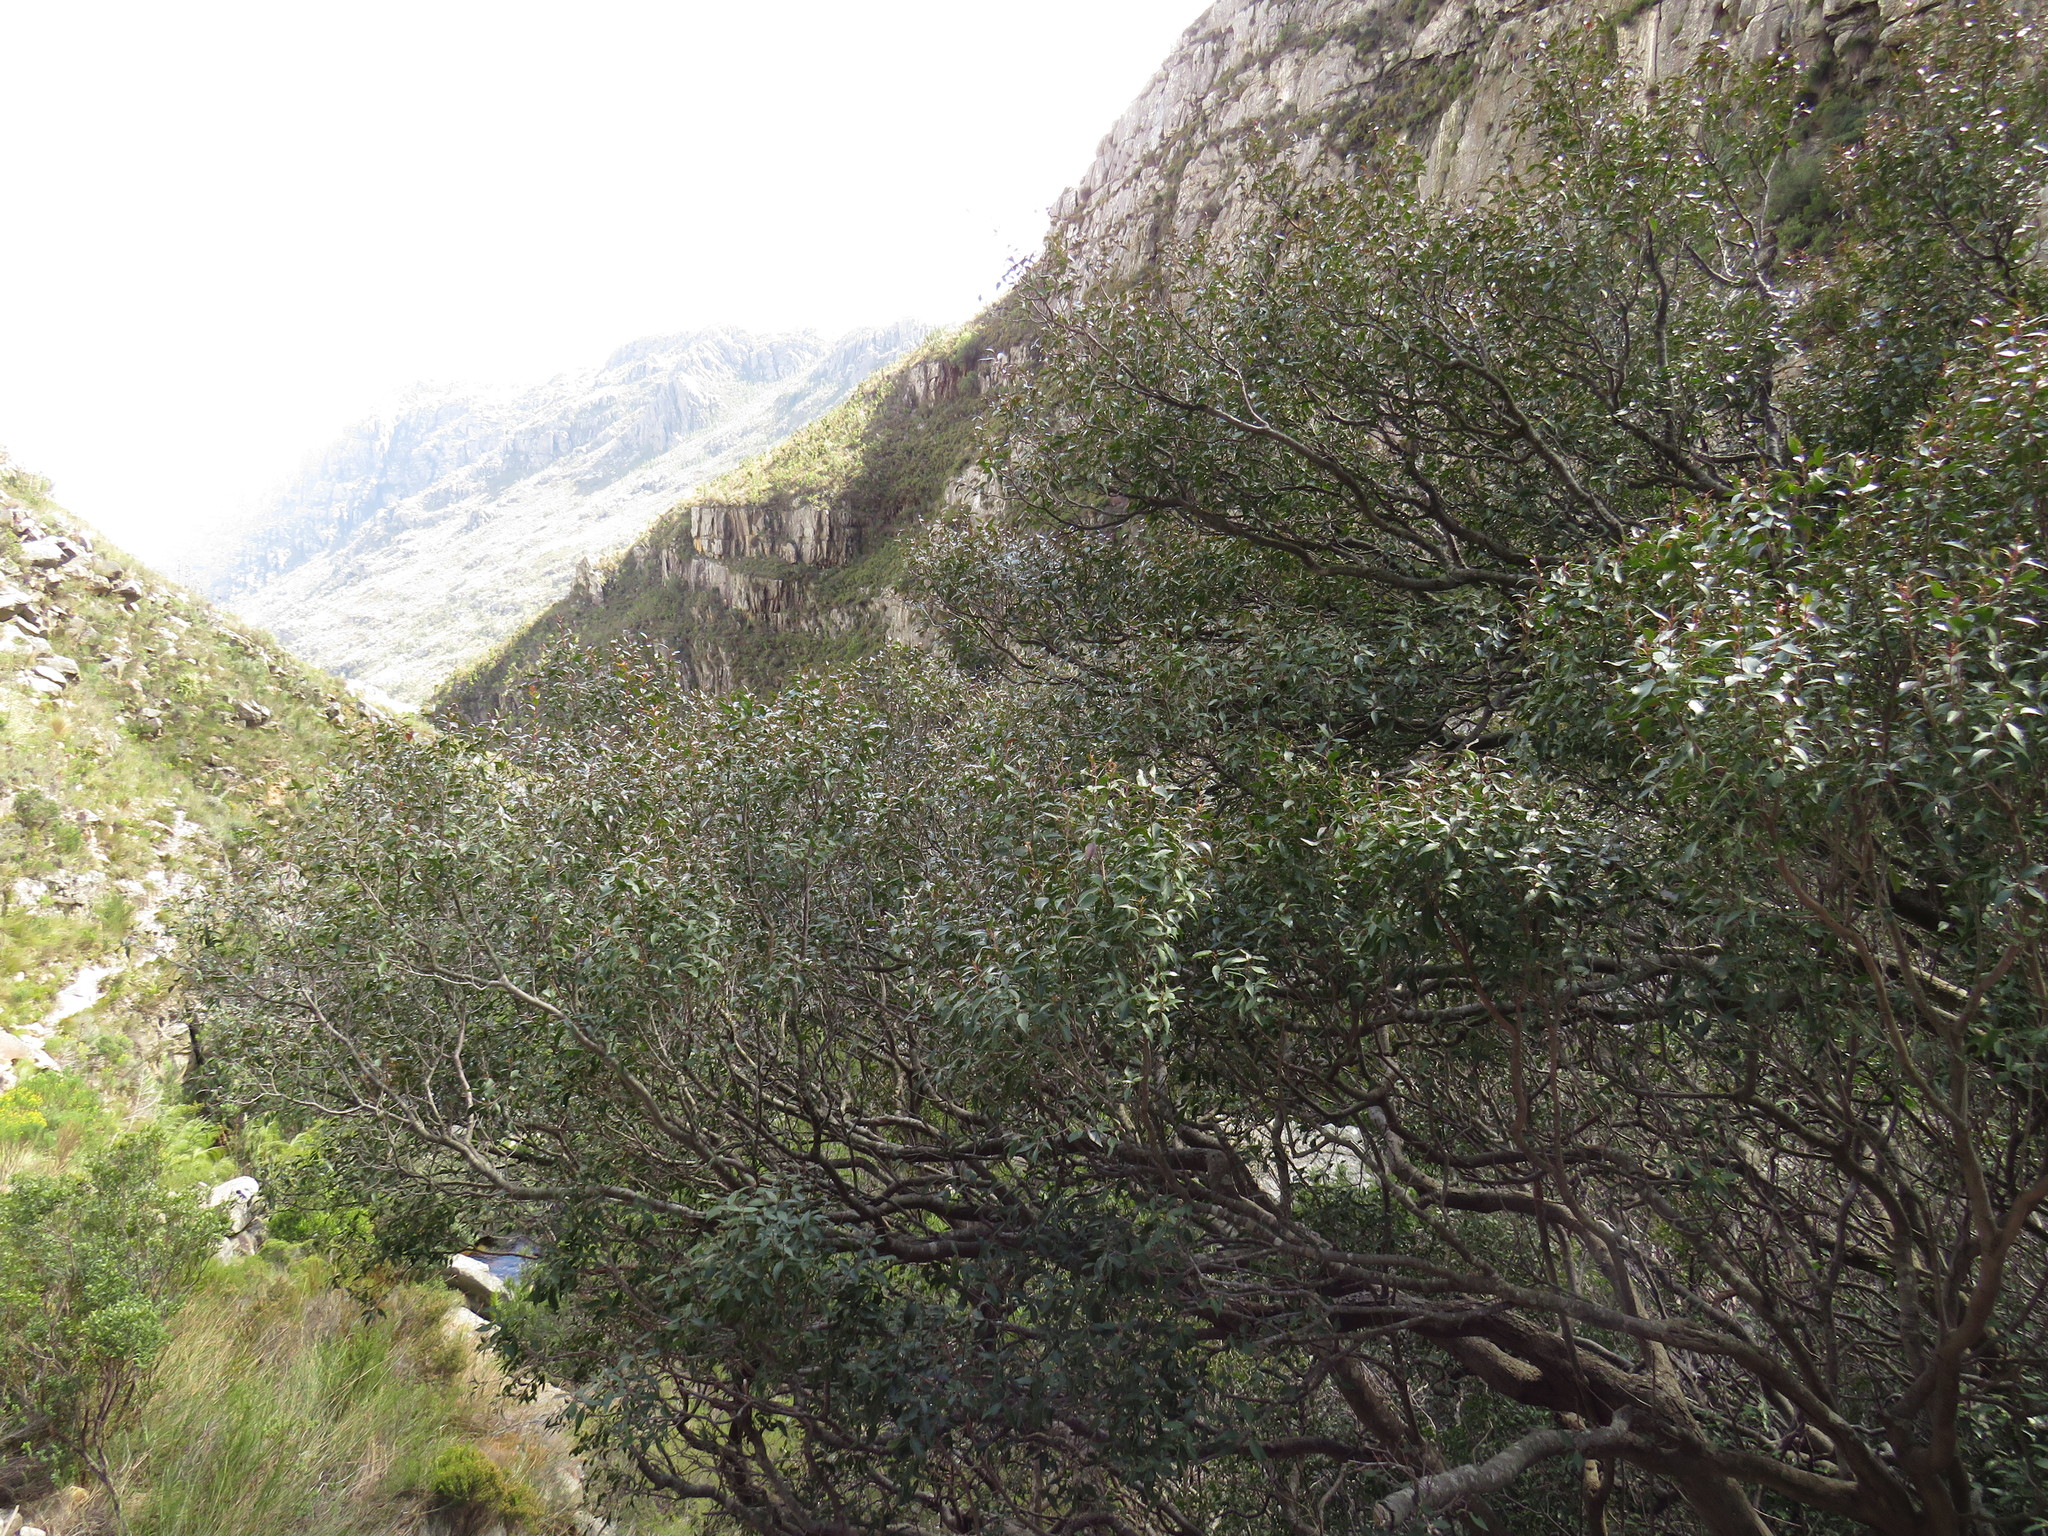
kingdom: Plantae
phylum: Tracheophyta
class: Magnoliopsida
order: Celastrales
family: Celastraceae
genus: Gymnosporia
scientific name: Gymnosporia acuminata
